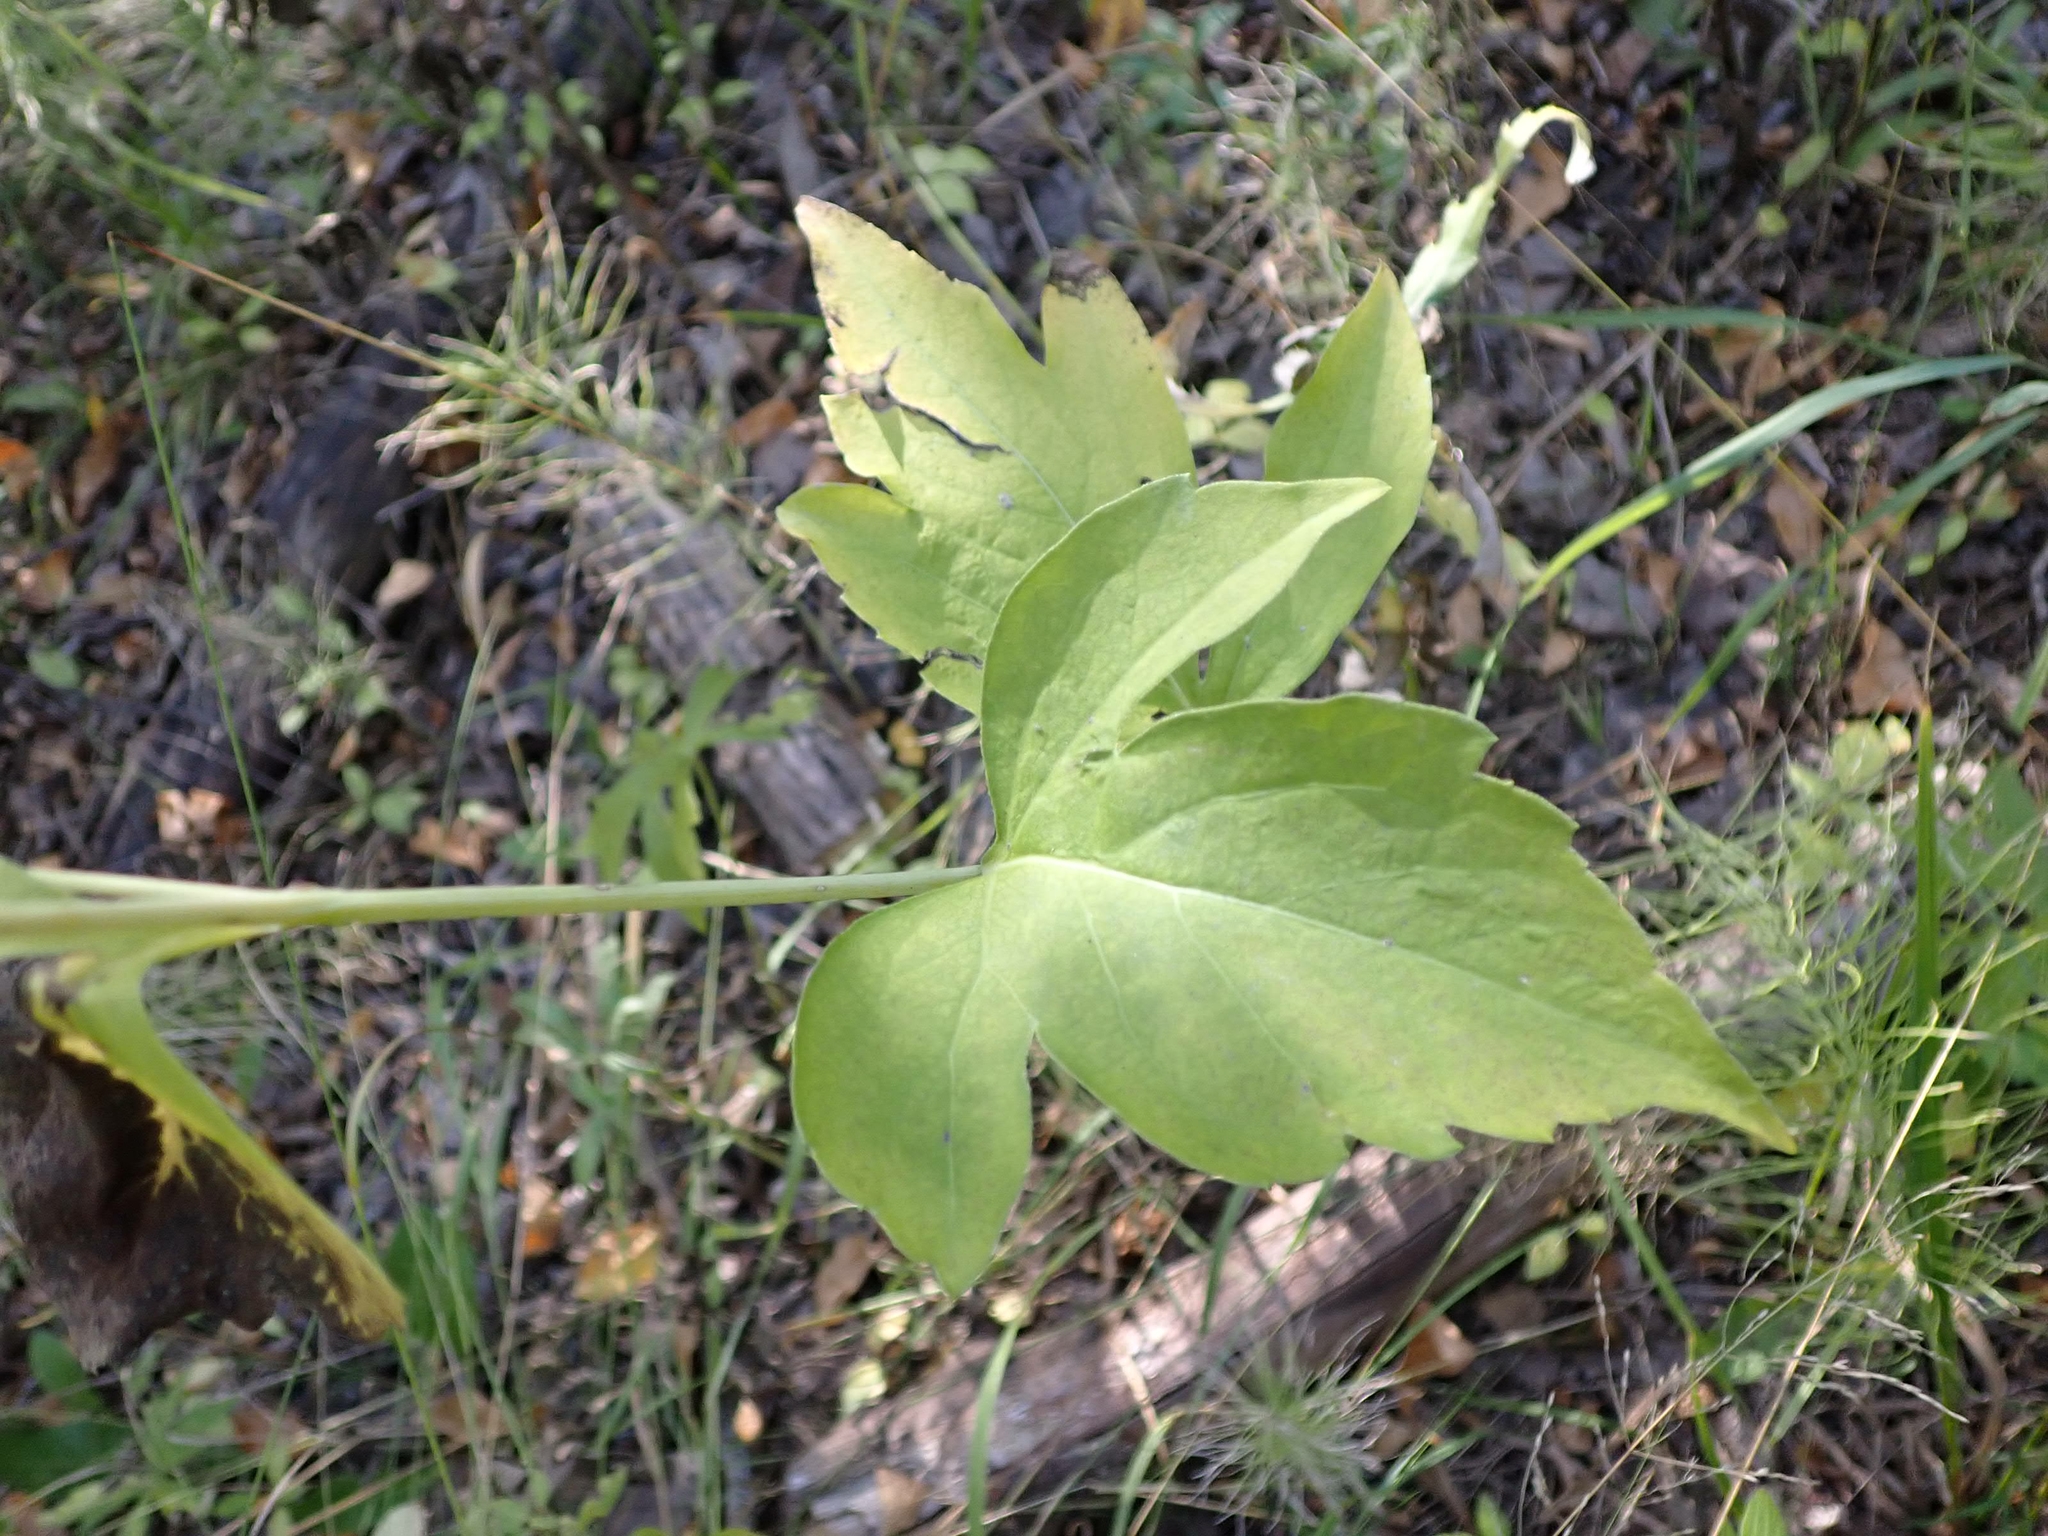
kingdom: Plantae
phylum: Tracheophyta
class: Magnoliopsida
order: Asterales
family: Asteraceae
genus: Rudbeckia
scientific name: Rudbeckia laciniata
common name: Coneflower
